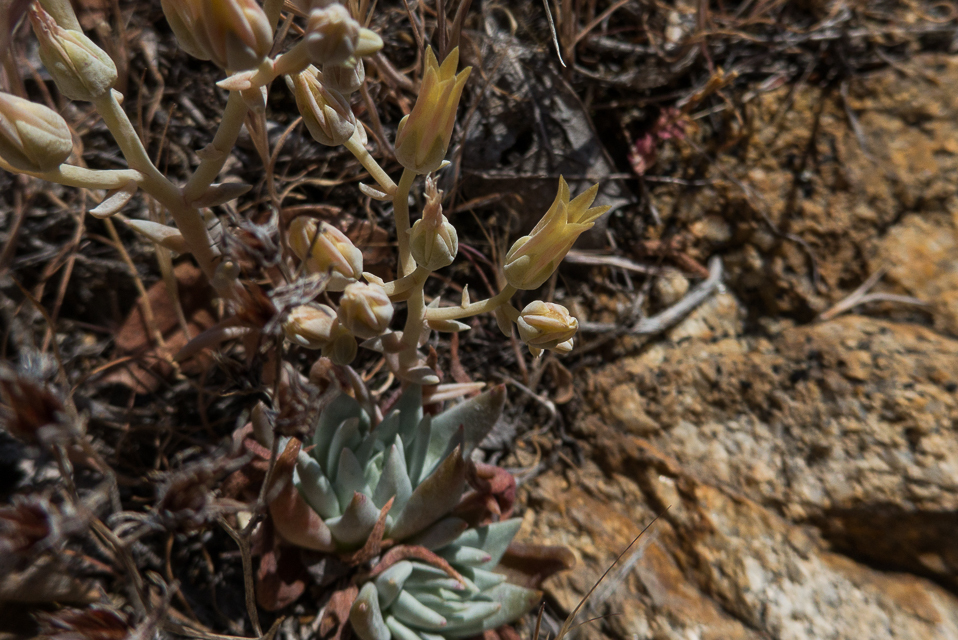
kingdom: Plantae
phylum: Tracheophyta
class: Magnoliopsida
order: Saxifragales
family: Crassulaceae
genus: Dudleya
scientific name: Dudleya calcicola
